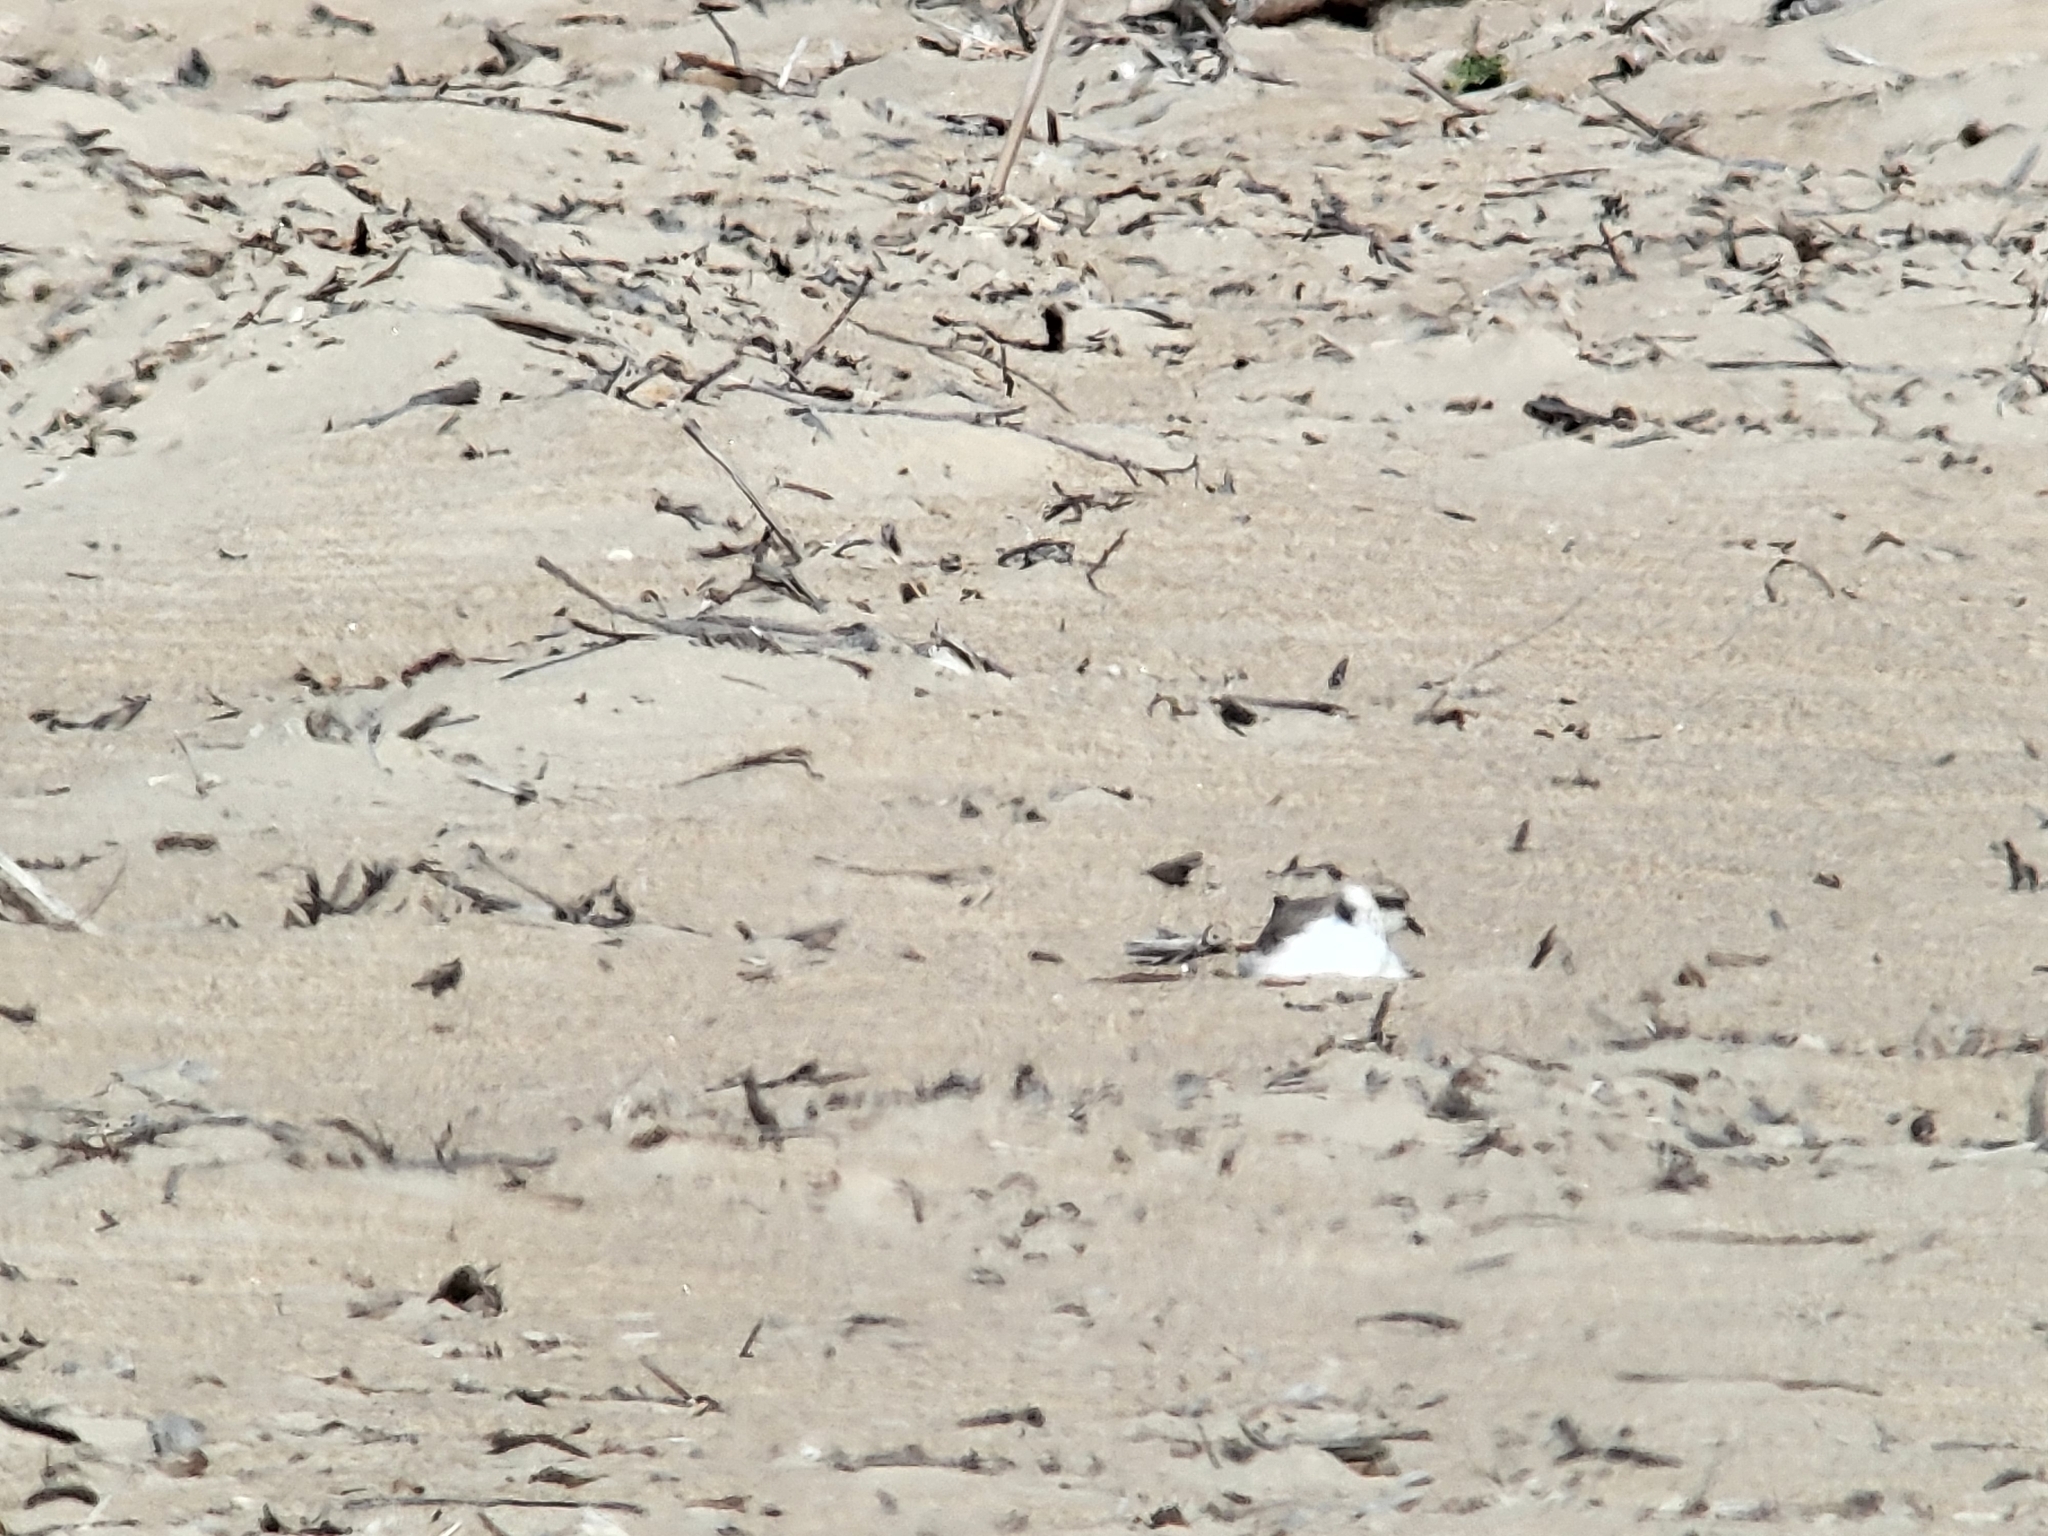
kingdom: Animalia
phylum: Chordata
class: Aves
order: Charadriiformes
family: Charadriidae
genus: Anarhynchus
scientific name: Anarhynchus
